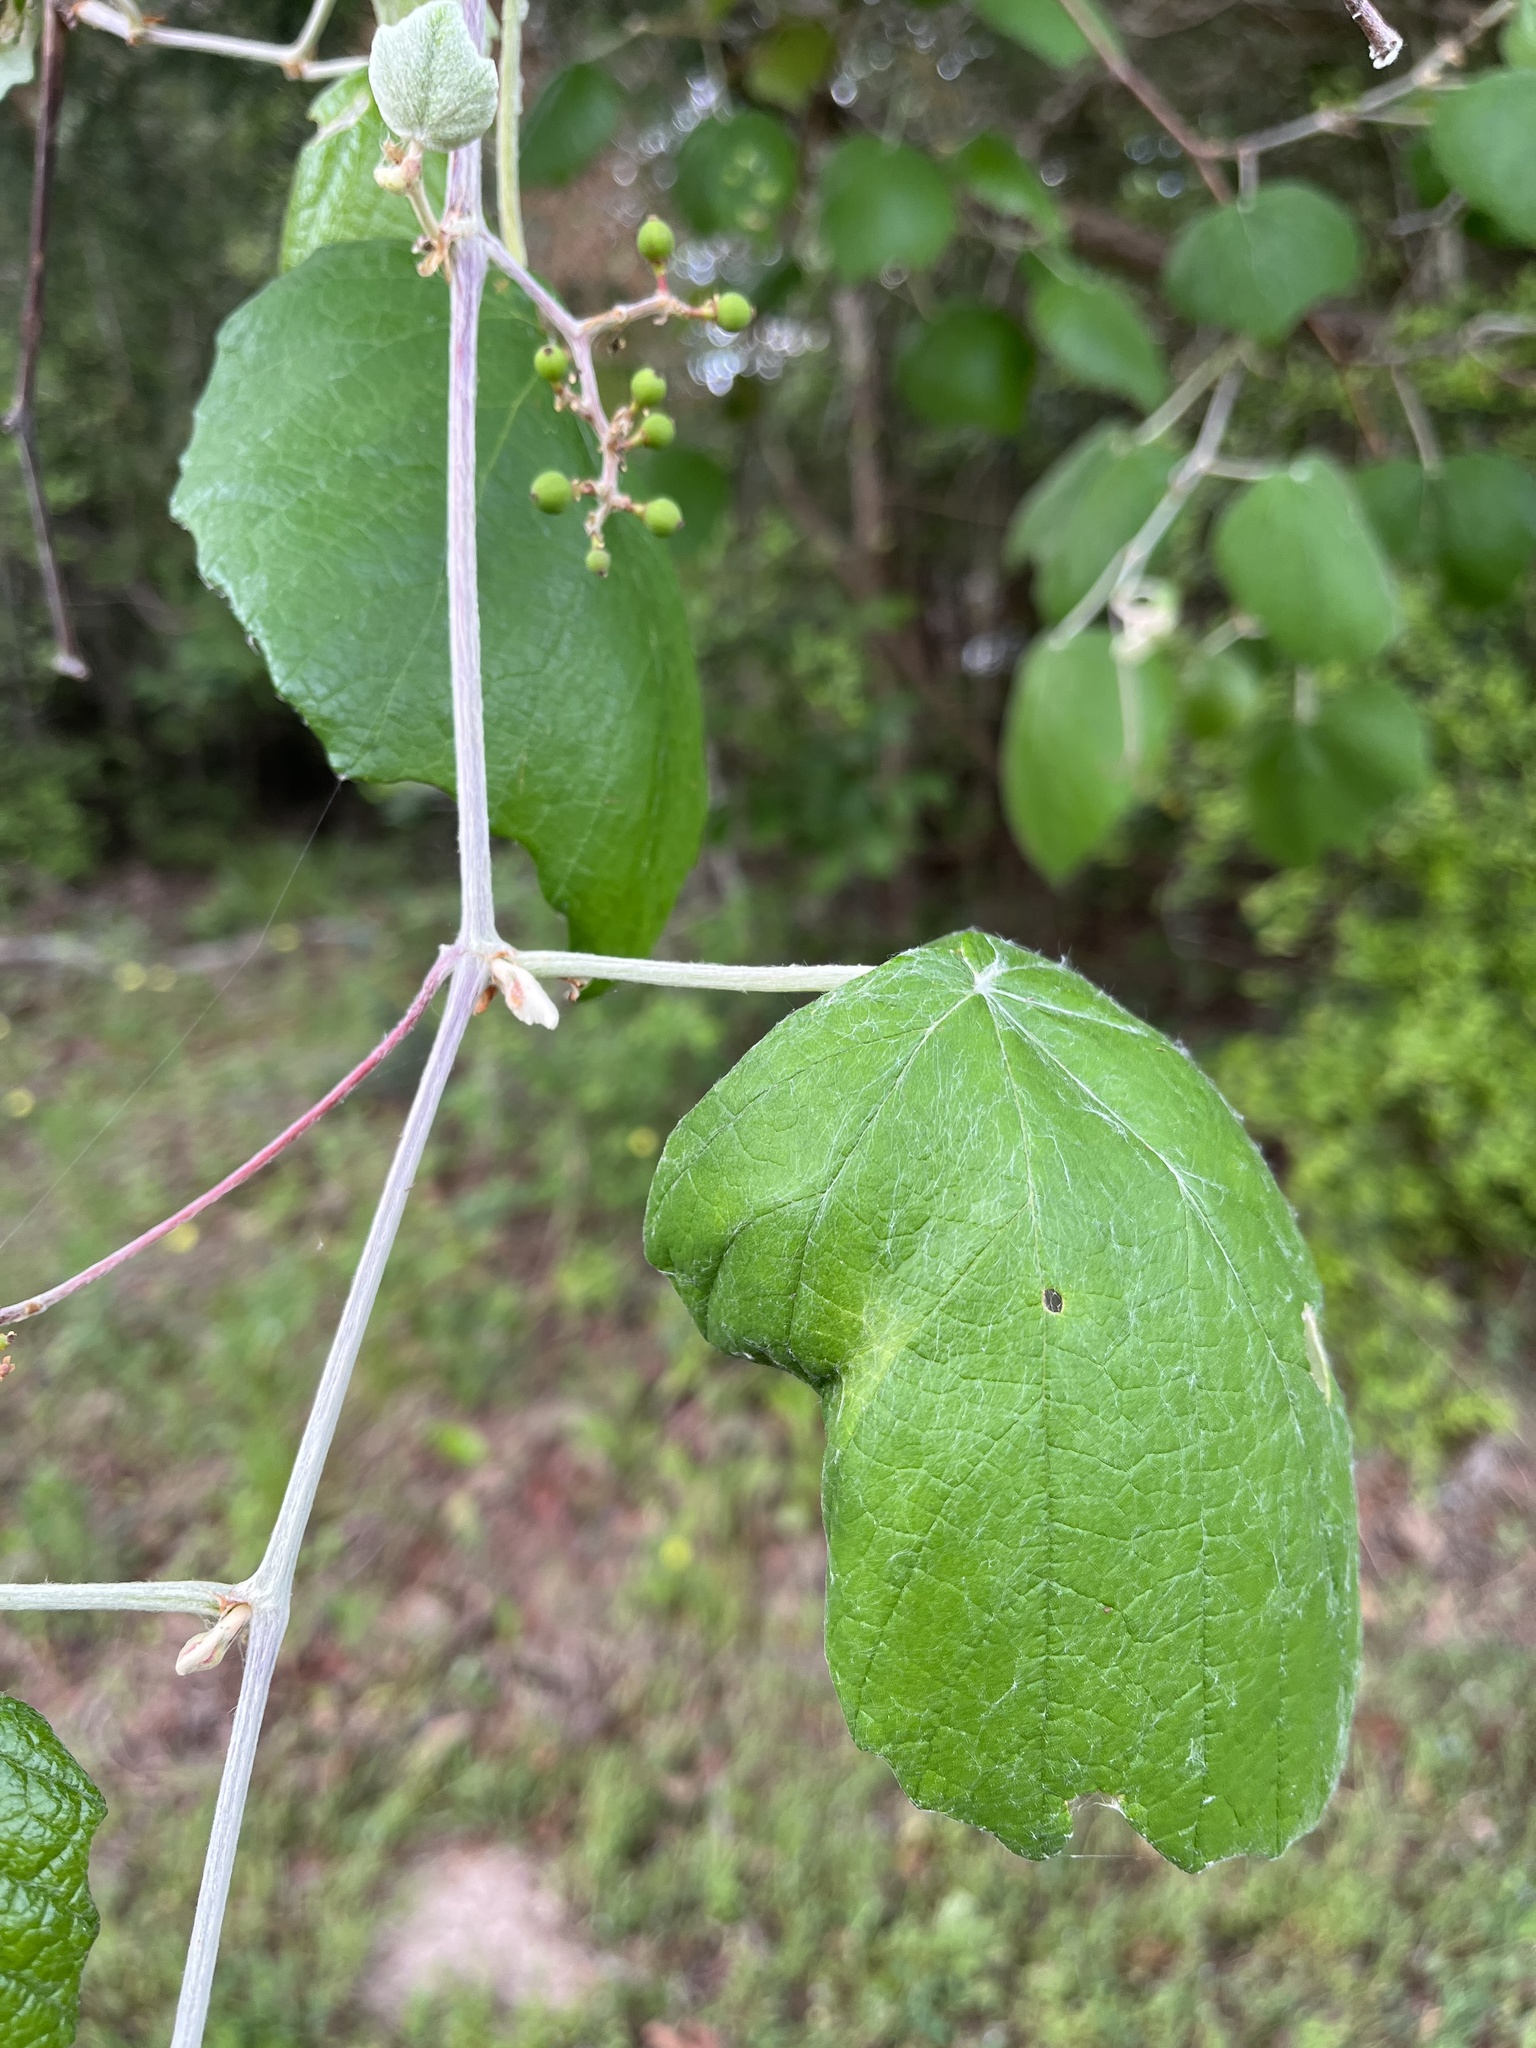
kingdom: Plantae
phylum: Tracheophyta
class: Magnoliopsida
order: Vitales
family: Vitaceae
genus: Vitis
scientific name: Vitis mustangensis
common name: Mustang grape
